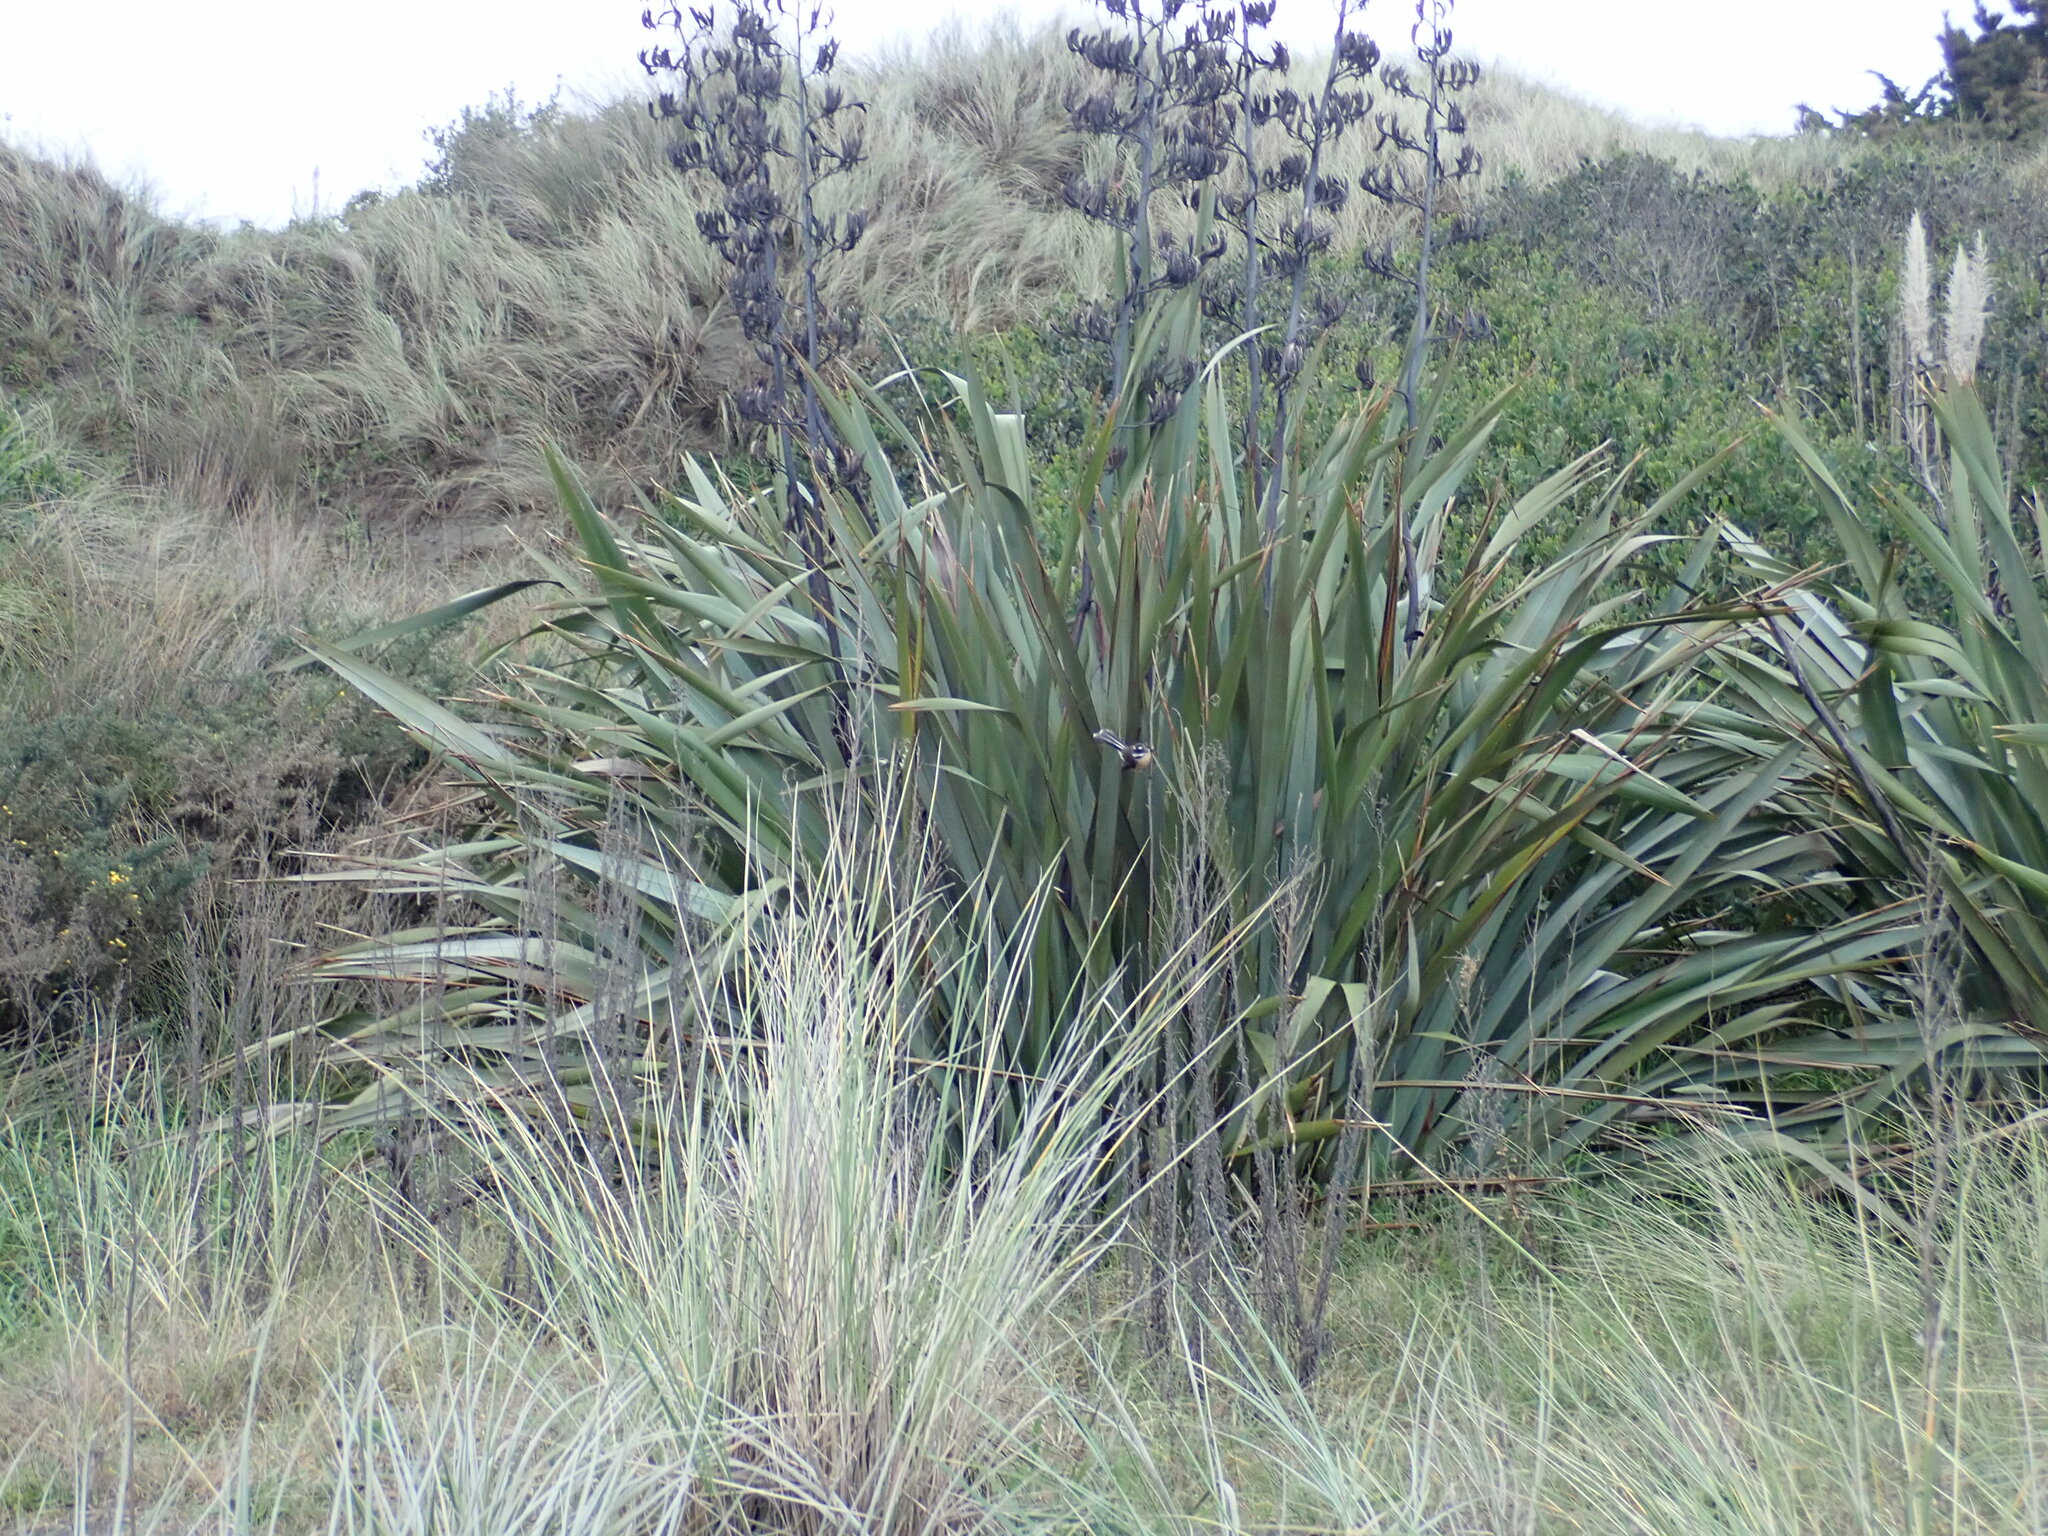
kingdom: Animalia
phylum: Chordata
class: Aves
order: Passeriformes
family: Rhipiduridae
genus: Rhipidura
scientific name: Rhipidura fuliginosa
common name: New zealand fantail
